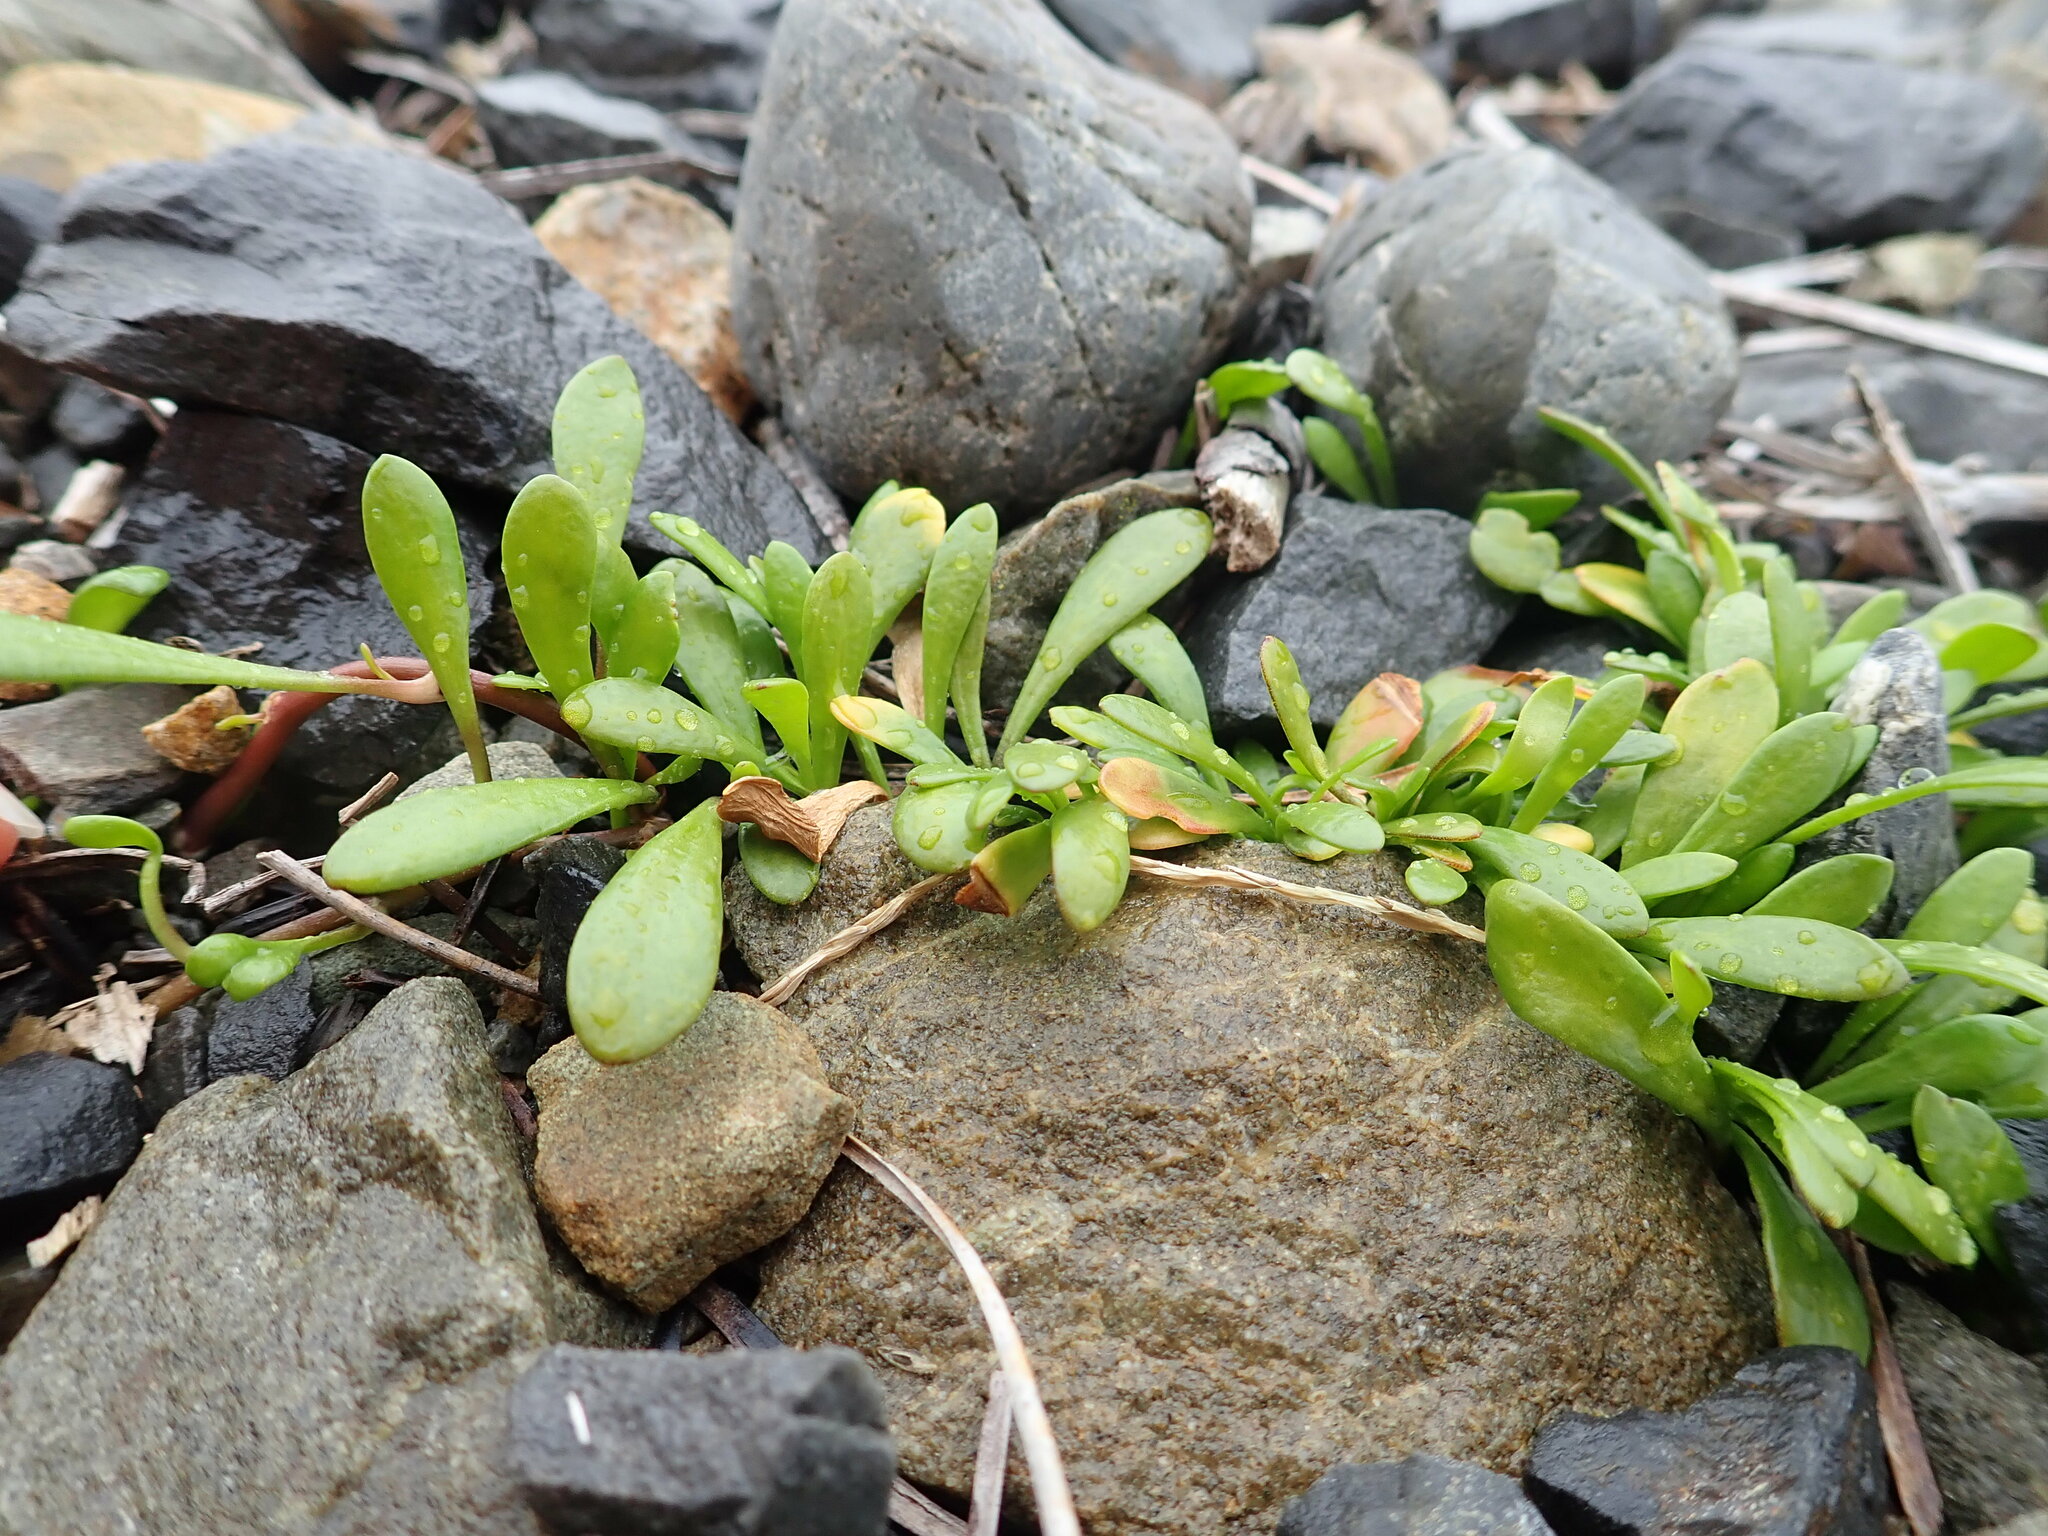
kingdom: Plantae
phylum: Tracheophyta
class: Magnoliopsida
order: Asterales
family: Goodeniaceae
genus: Goodenia
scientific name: Goodenia radicans
